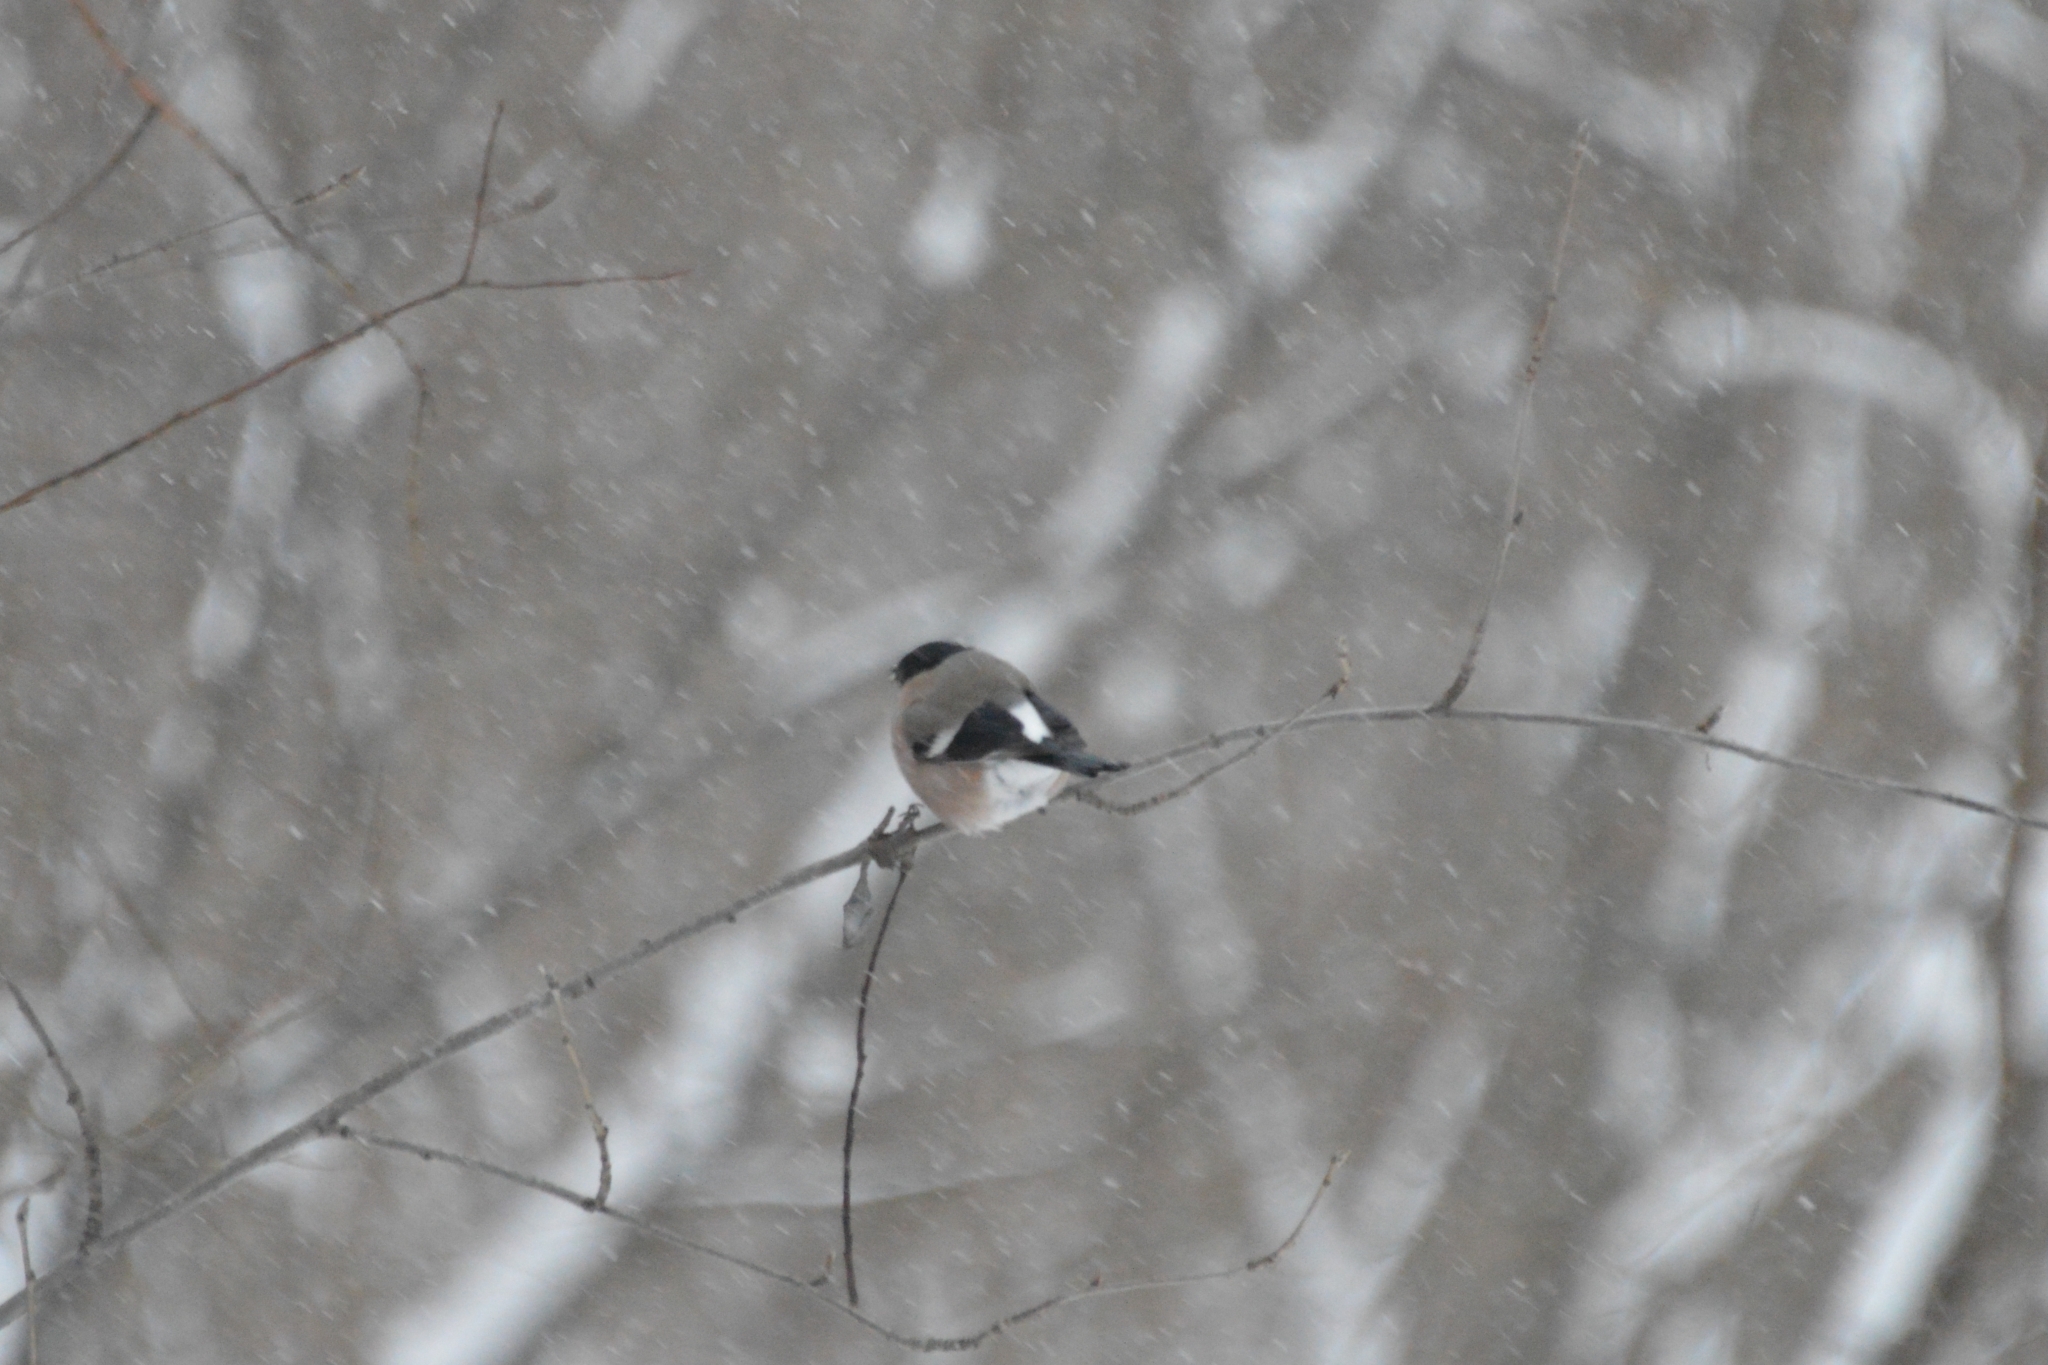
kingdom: Animalia
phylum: Chordata
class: Aves
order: Passeriformes
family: Fringillidae
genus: Pyrrhula
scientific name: Pyrrhula pyrrhula
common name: Eurasian bullfinch
